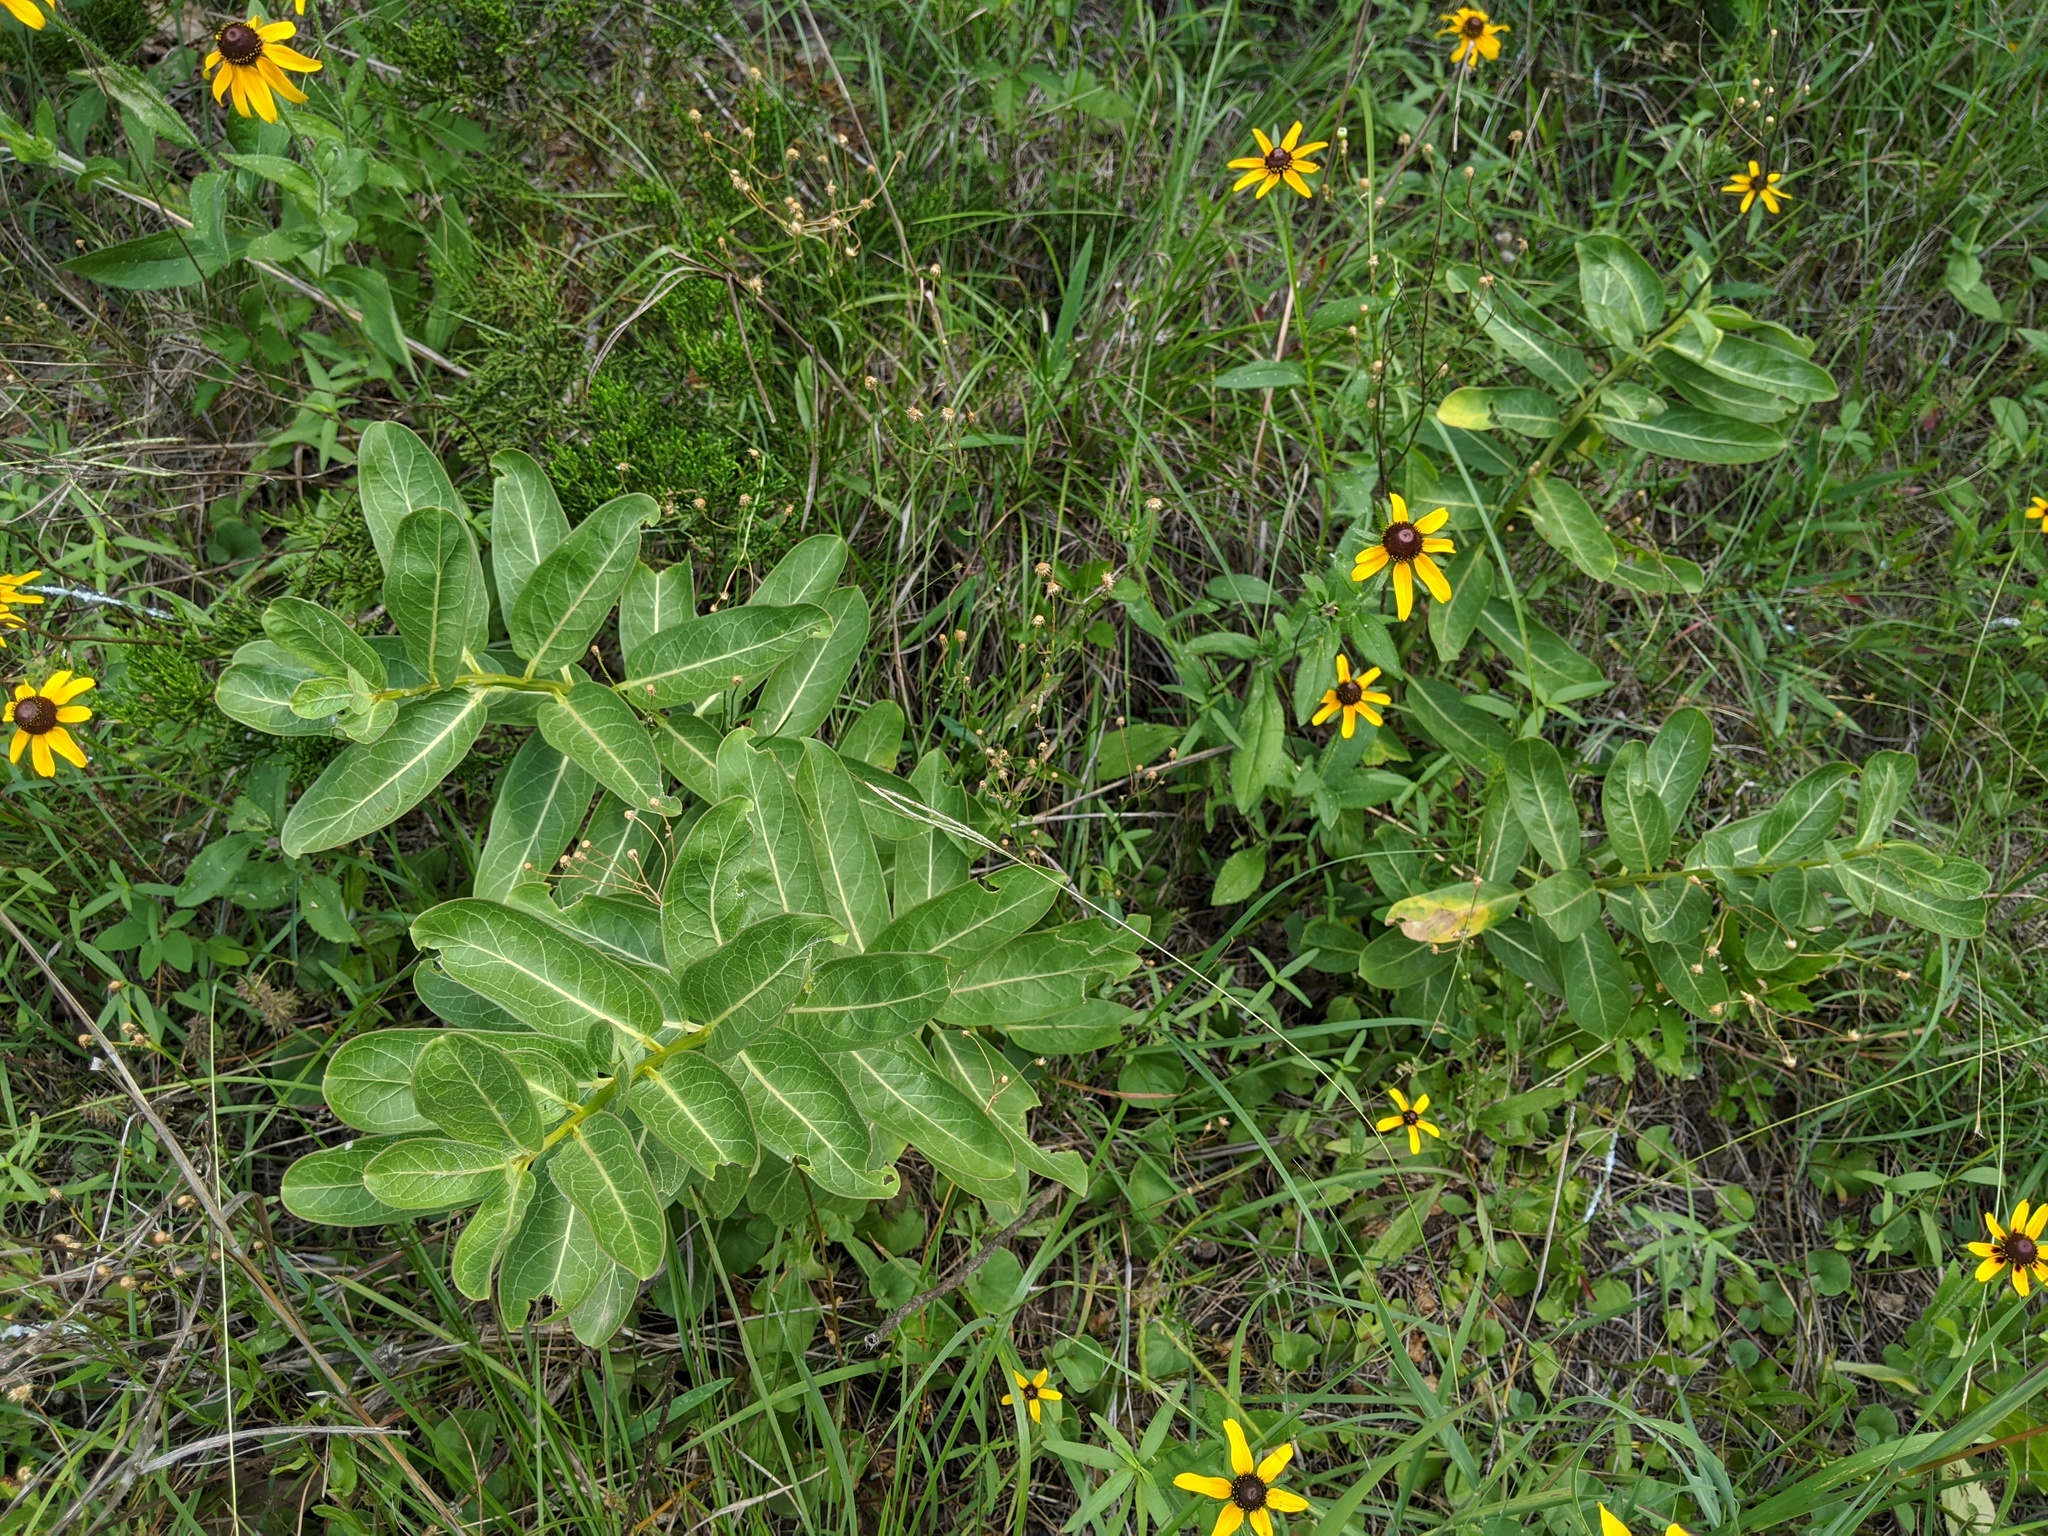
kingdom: Plantae
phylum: Tracheophyta
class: Magnoliopsida
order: Gentianales
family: Apocynaceae
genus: Asclepias
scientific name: Asclepias viridis
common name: Antelope-horns
